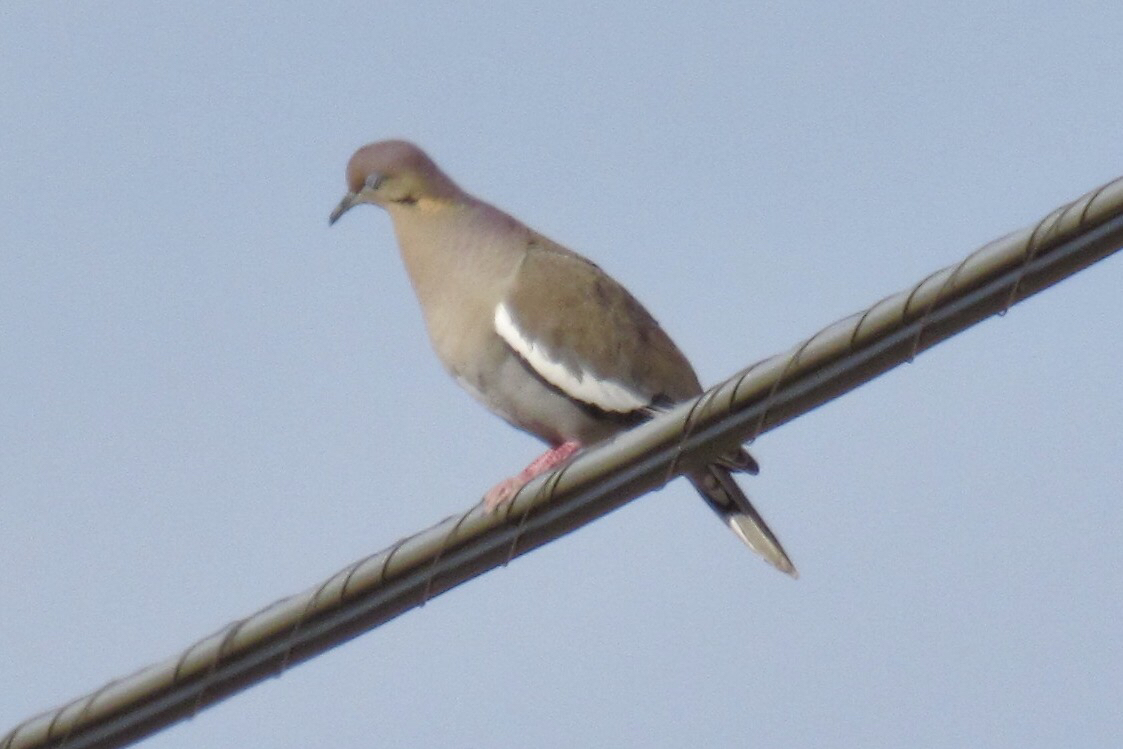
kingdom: Animalia
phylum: Chordata
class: Aves
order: Columbiformes
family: Columbidae
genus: Zenaida
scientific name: Zenaida asiatica
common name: White-winged dove
